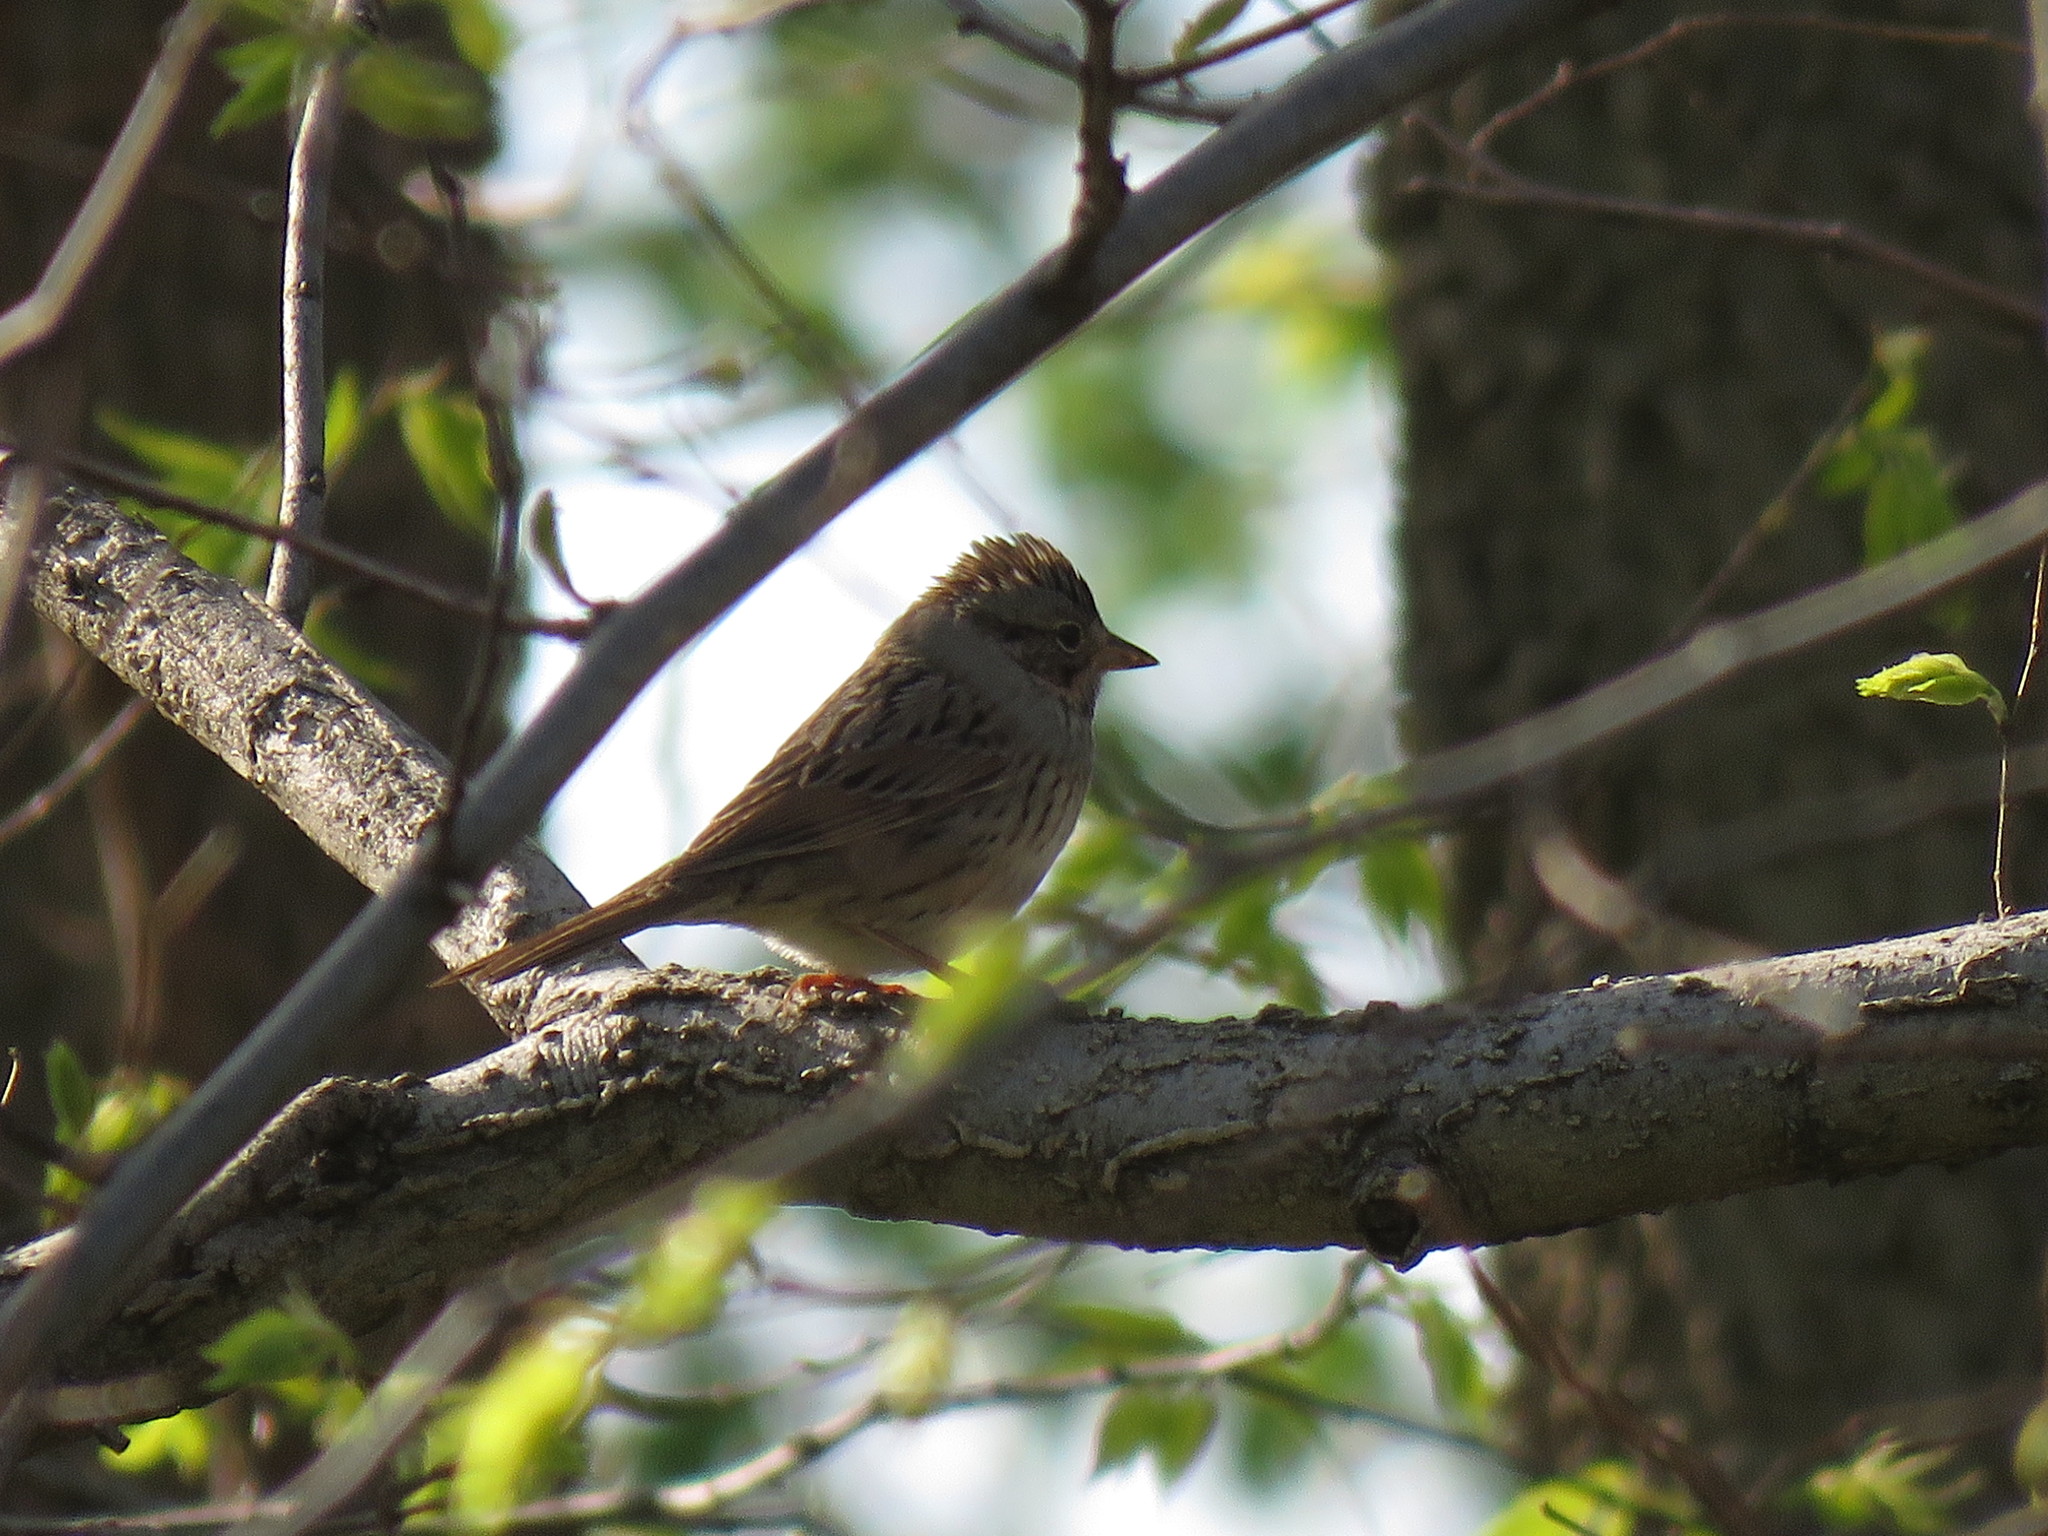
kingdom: Animalia
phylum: Chordata
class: Aves
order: Passeriformes
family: Passerellidae
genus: Melospiza
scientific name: Melospiza lincolnii
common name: Lincoln's sparrow
